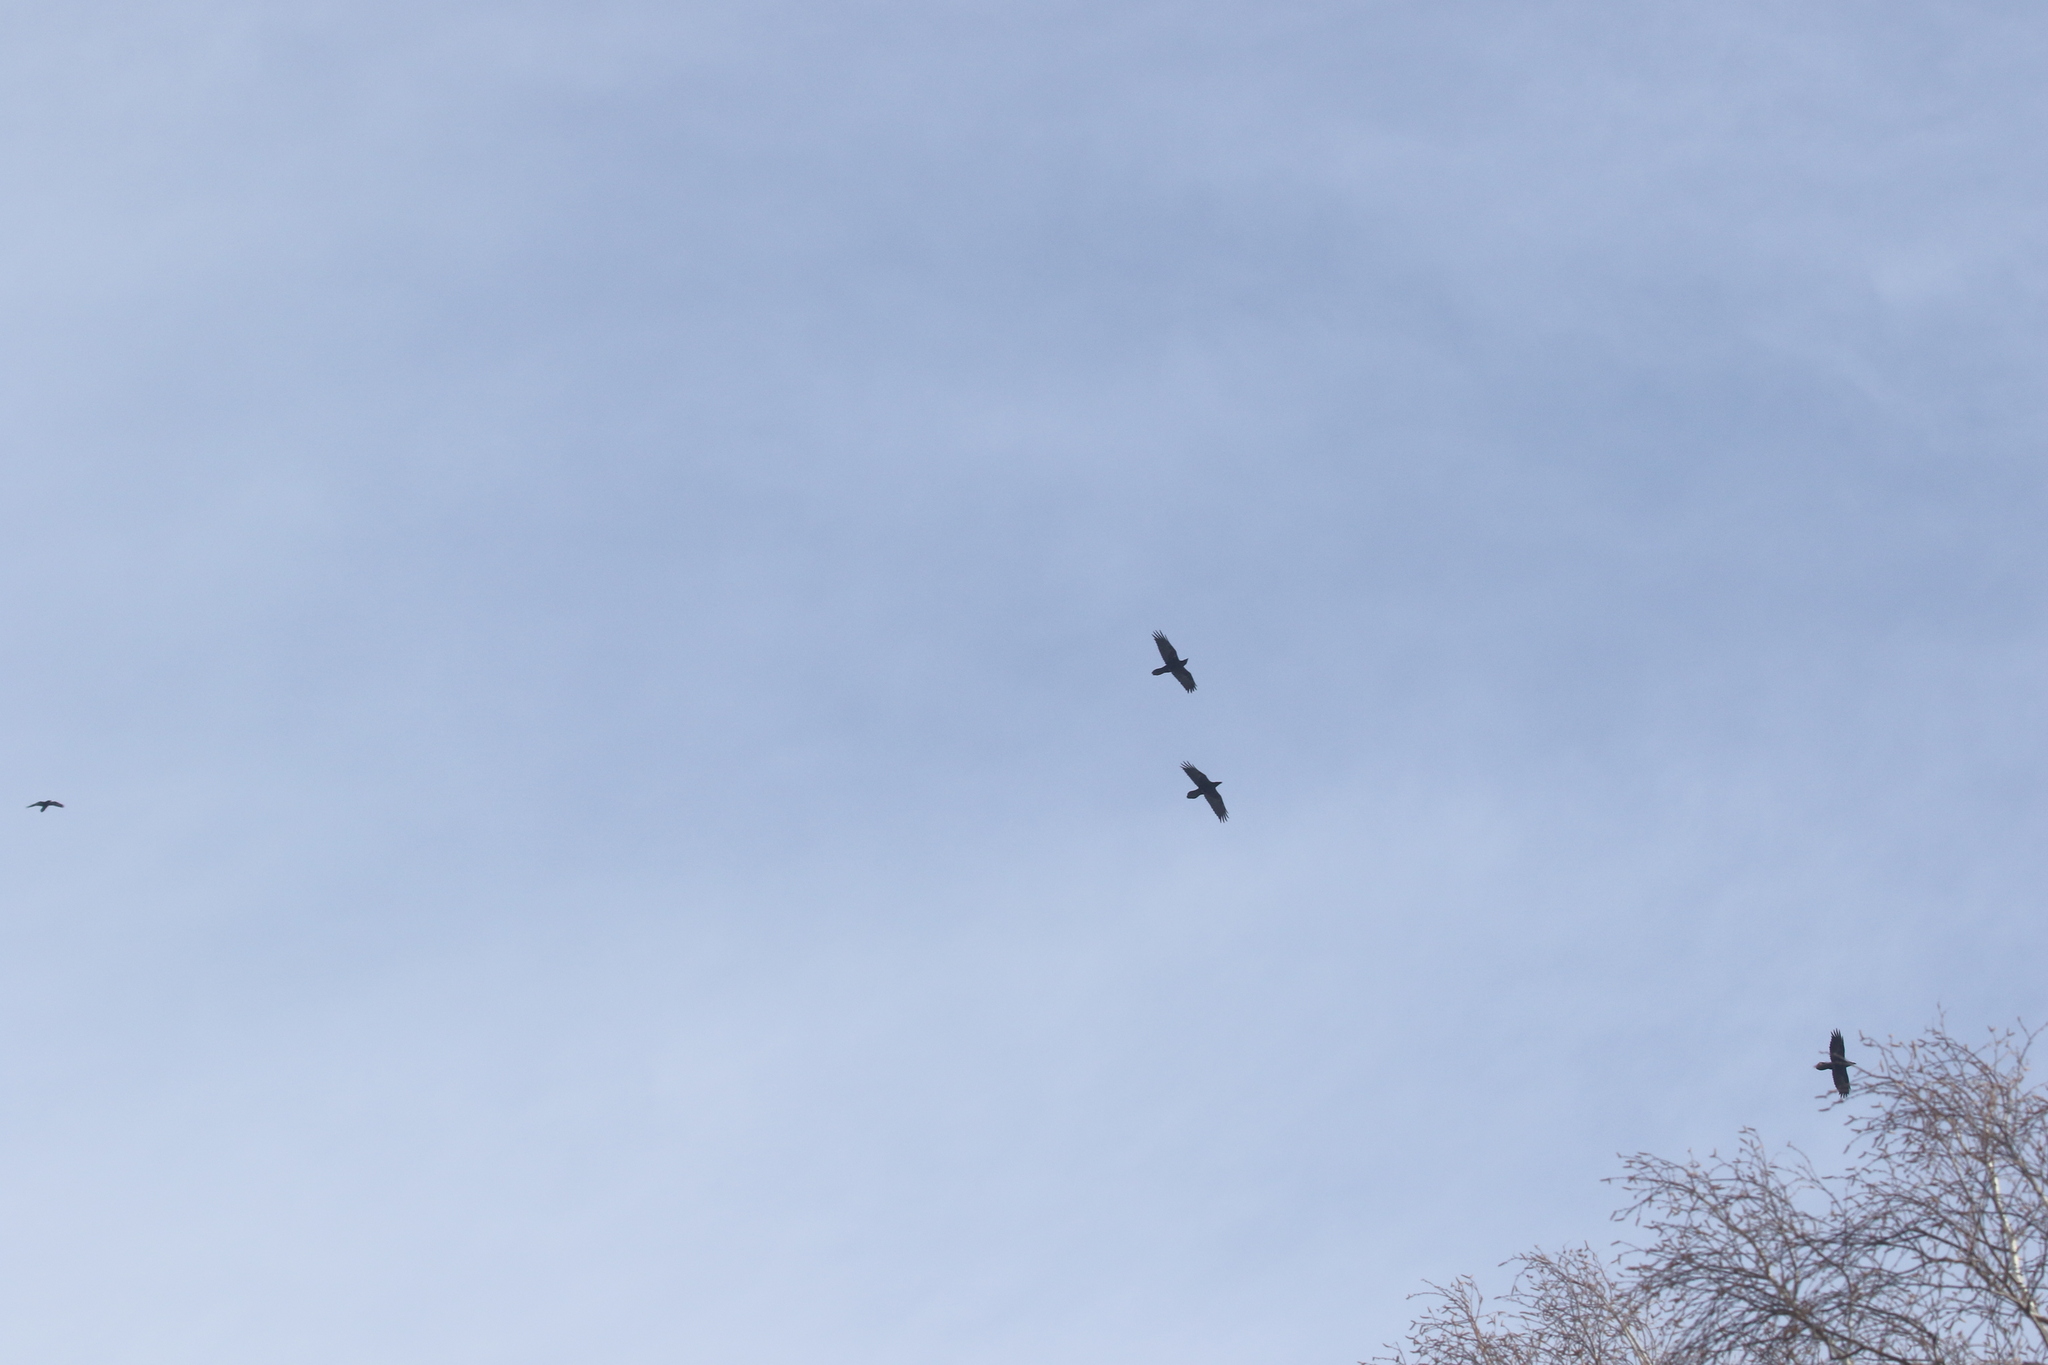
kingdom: Animalia
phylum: Chordata
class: Aves
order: Passeriformes
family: Corvidae
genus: Corvus
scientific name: Corvus corax
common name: Common raven
